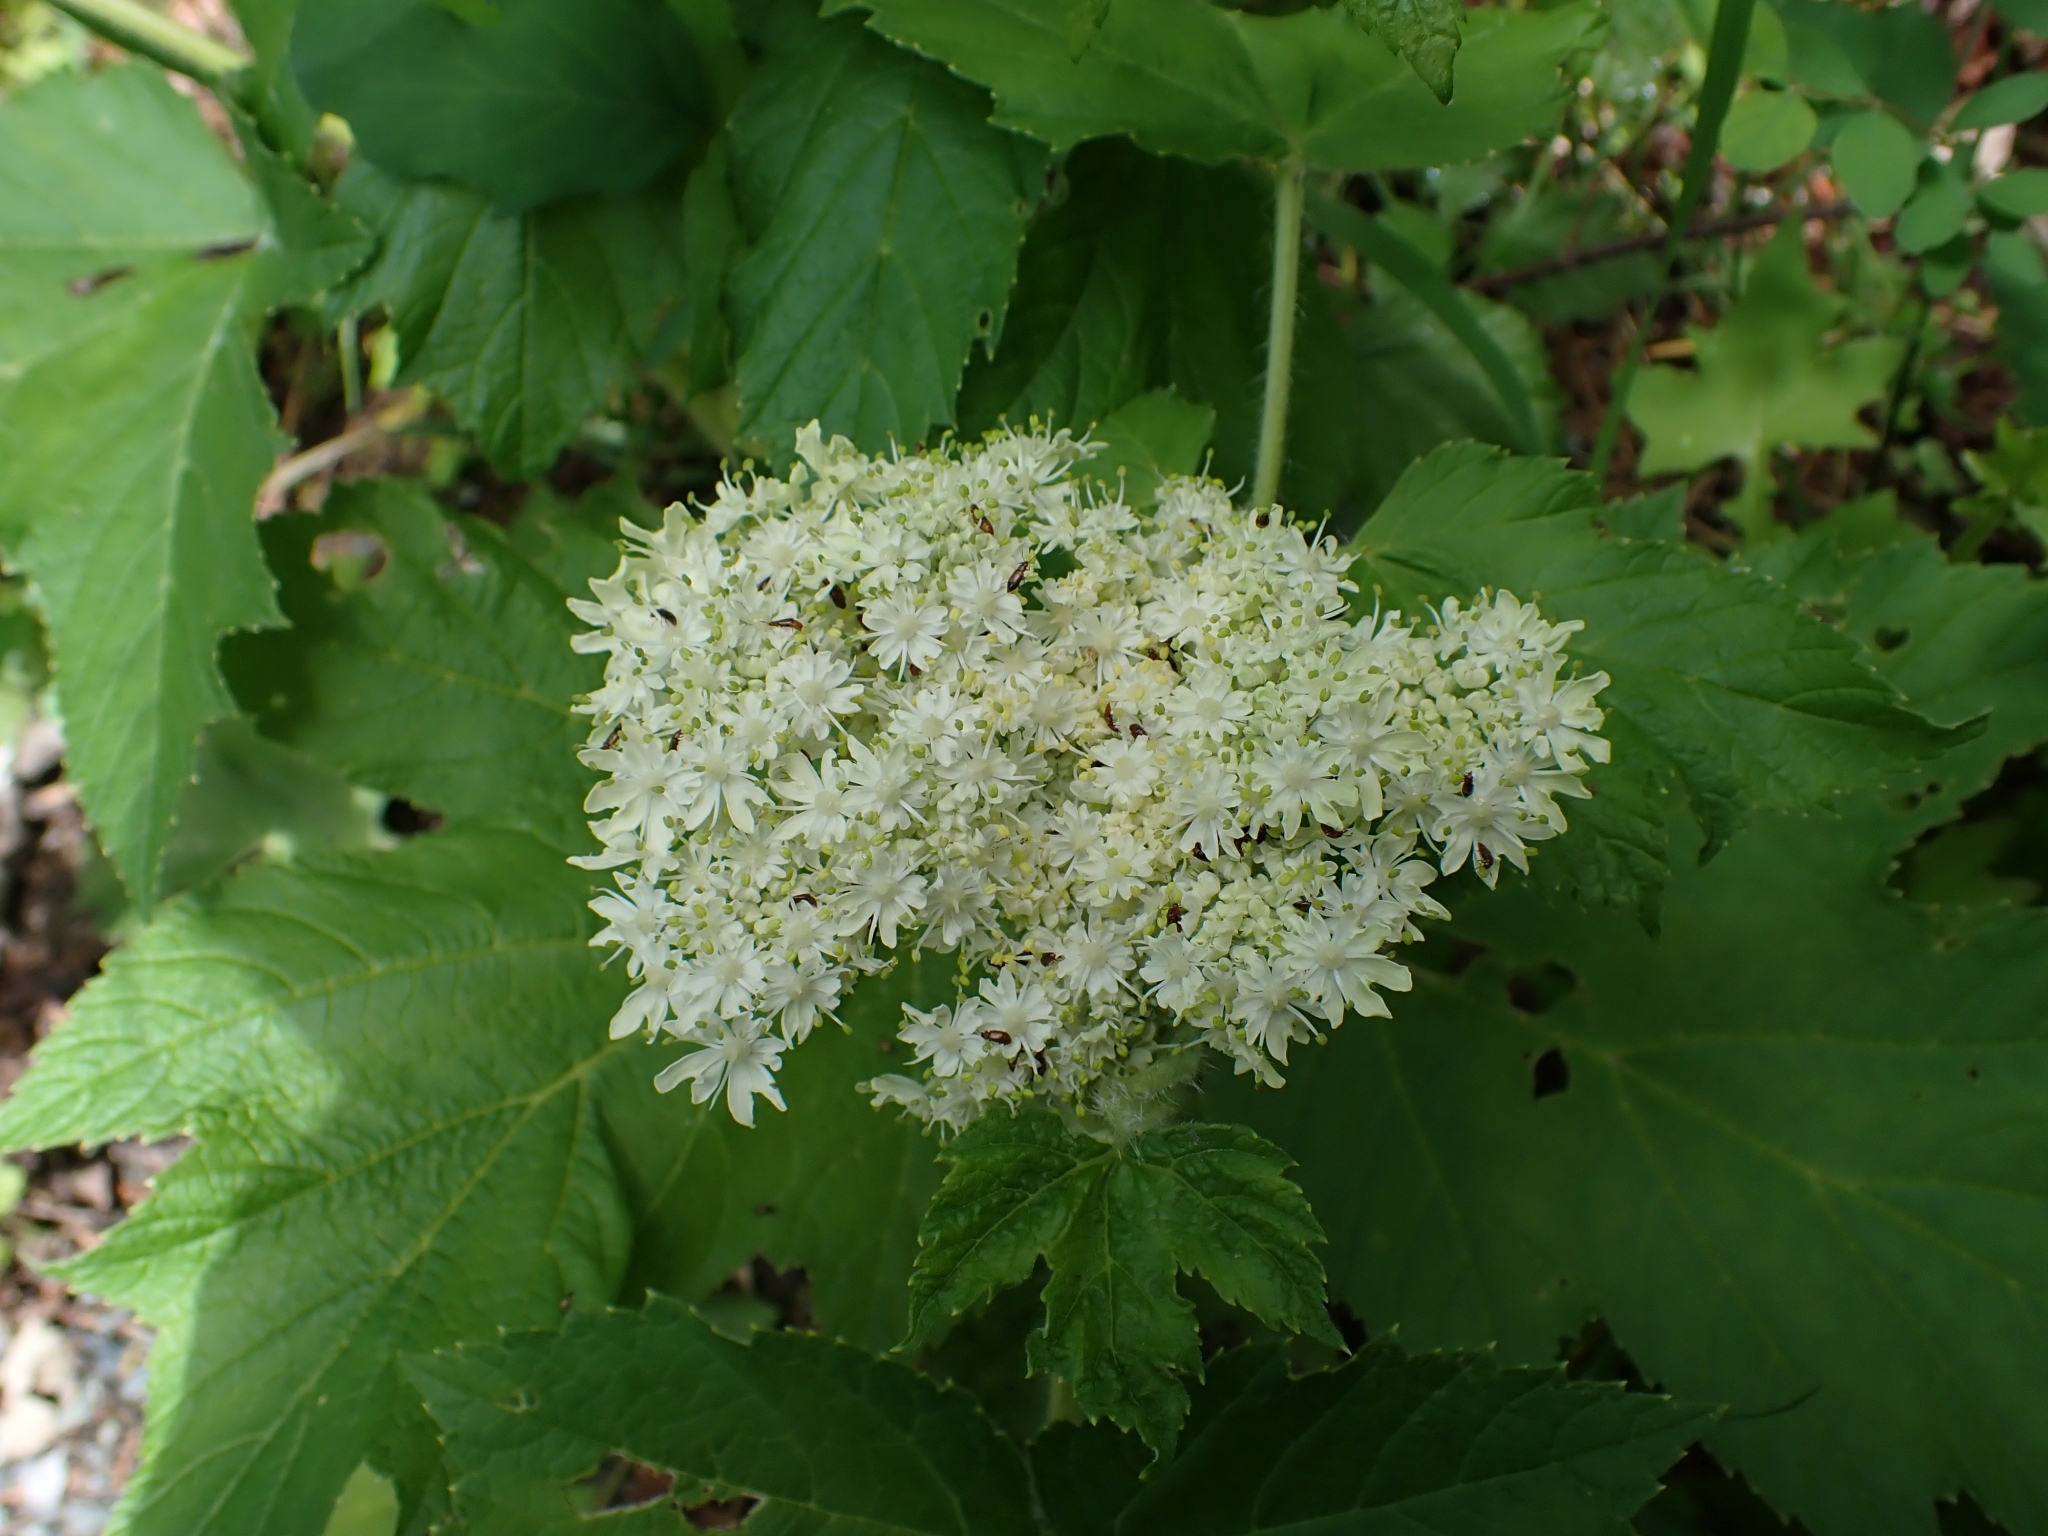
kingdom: Plantae
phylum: Tracheophyta
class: Magnoliopsida
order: Apiales
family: Apiaceae
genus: Heracleum
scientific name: Heracleum maximum
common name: American cow parsnip
